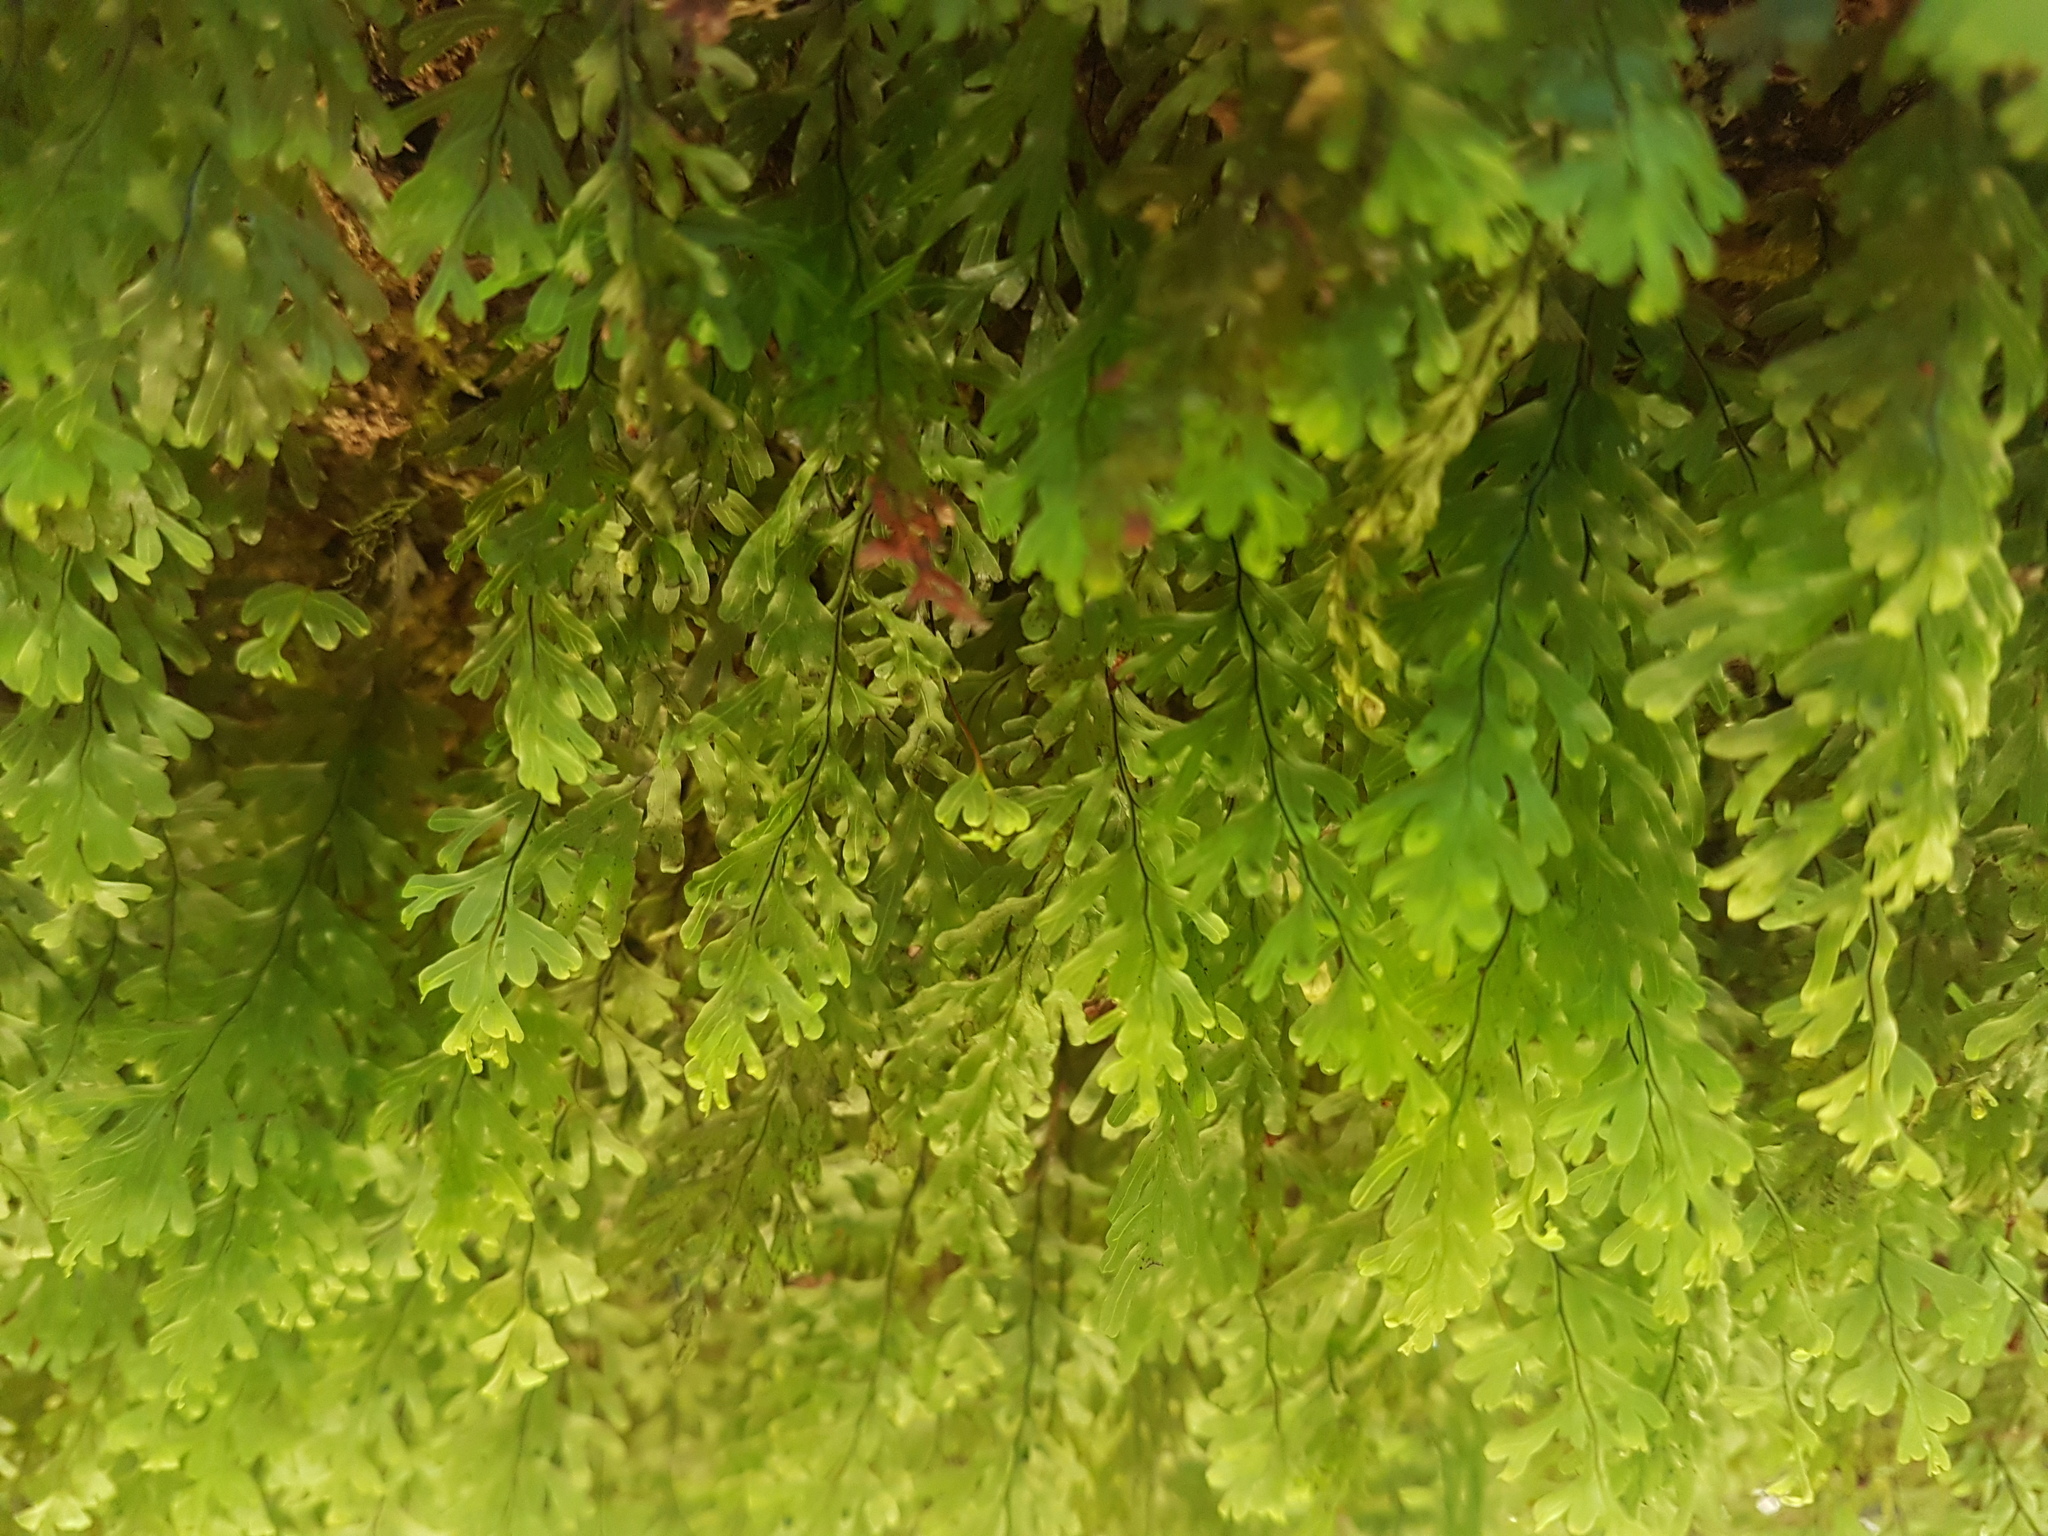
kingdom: Plantae
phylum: Tracheophyta
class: Polypodiopsida
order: Hymenophyllales
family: Hymenophyllaceae
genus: Hymenophyllum
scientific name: Hymenophyllum rarum
